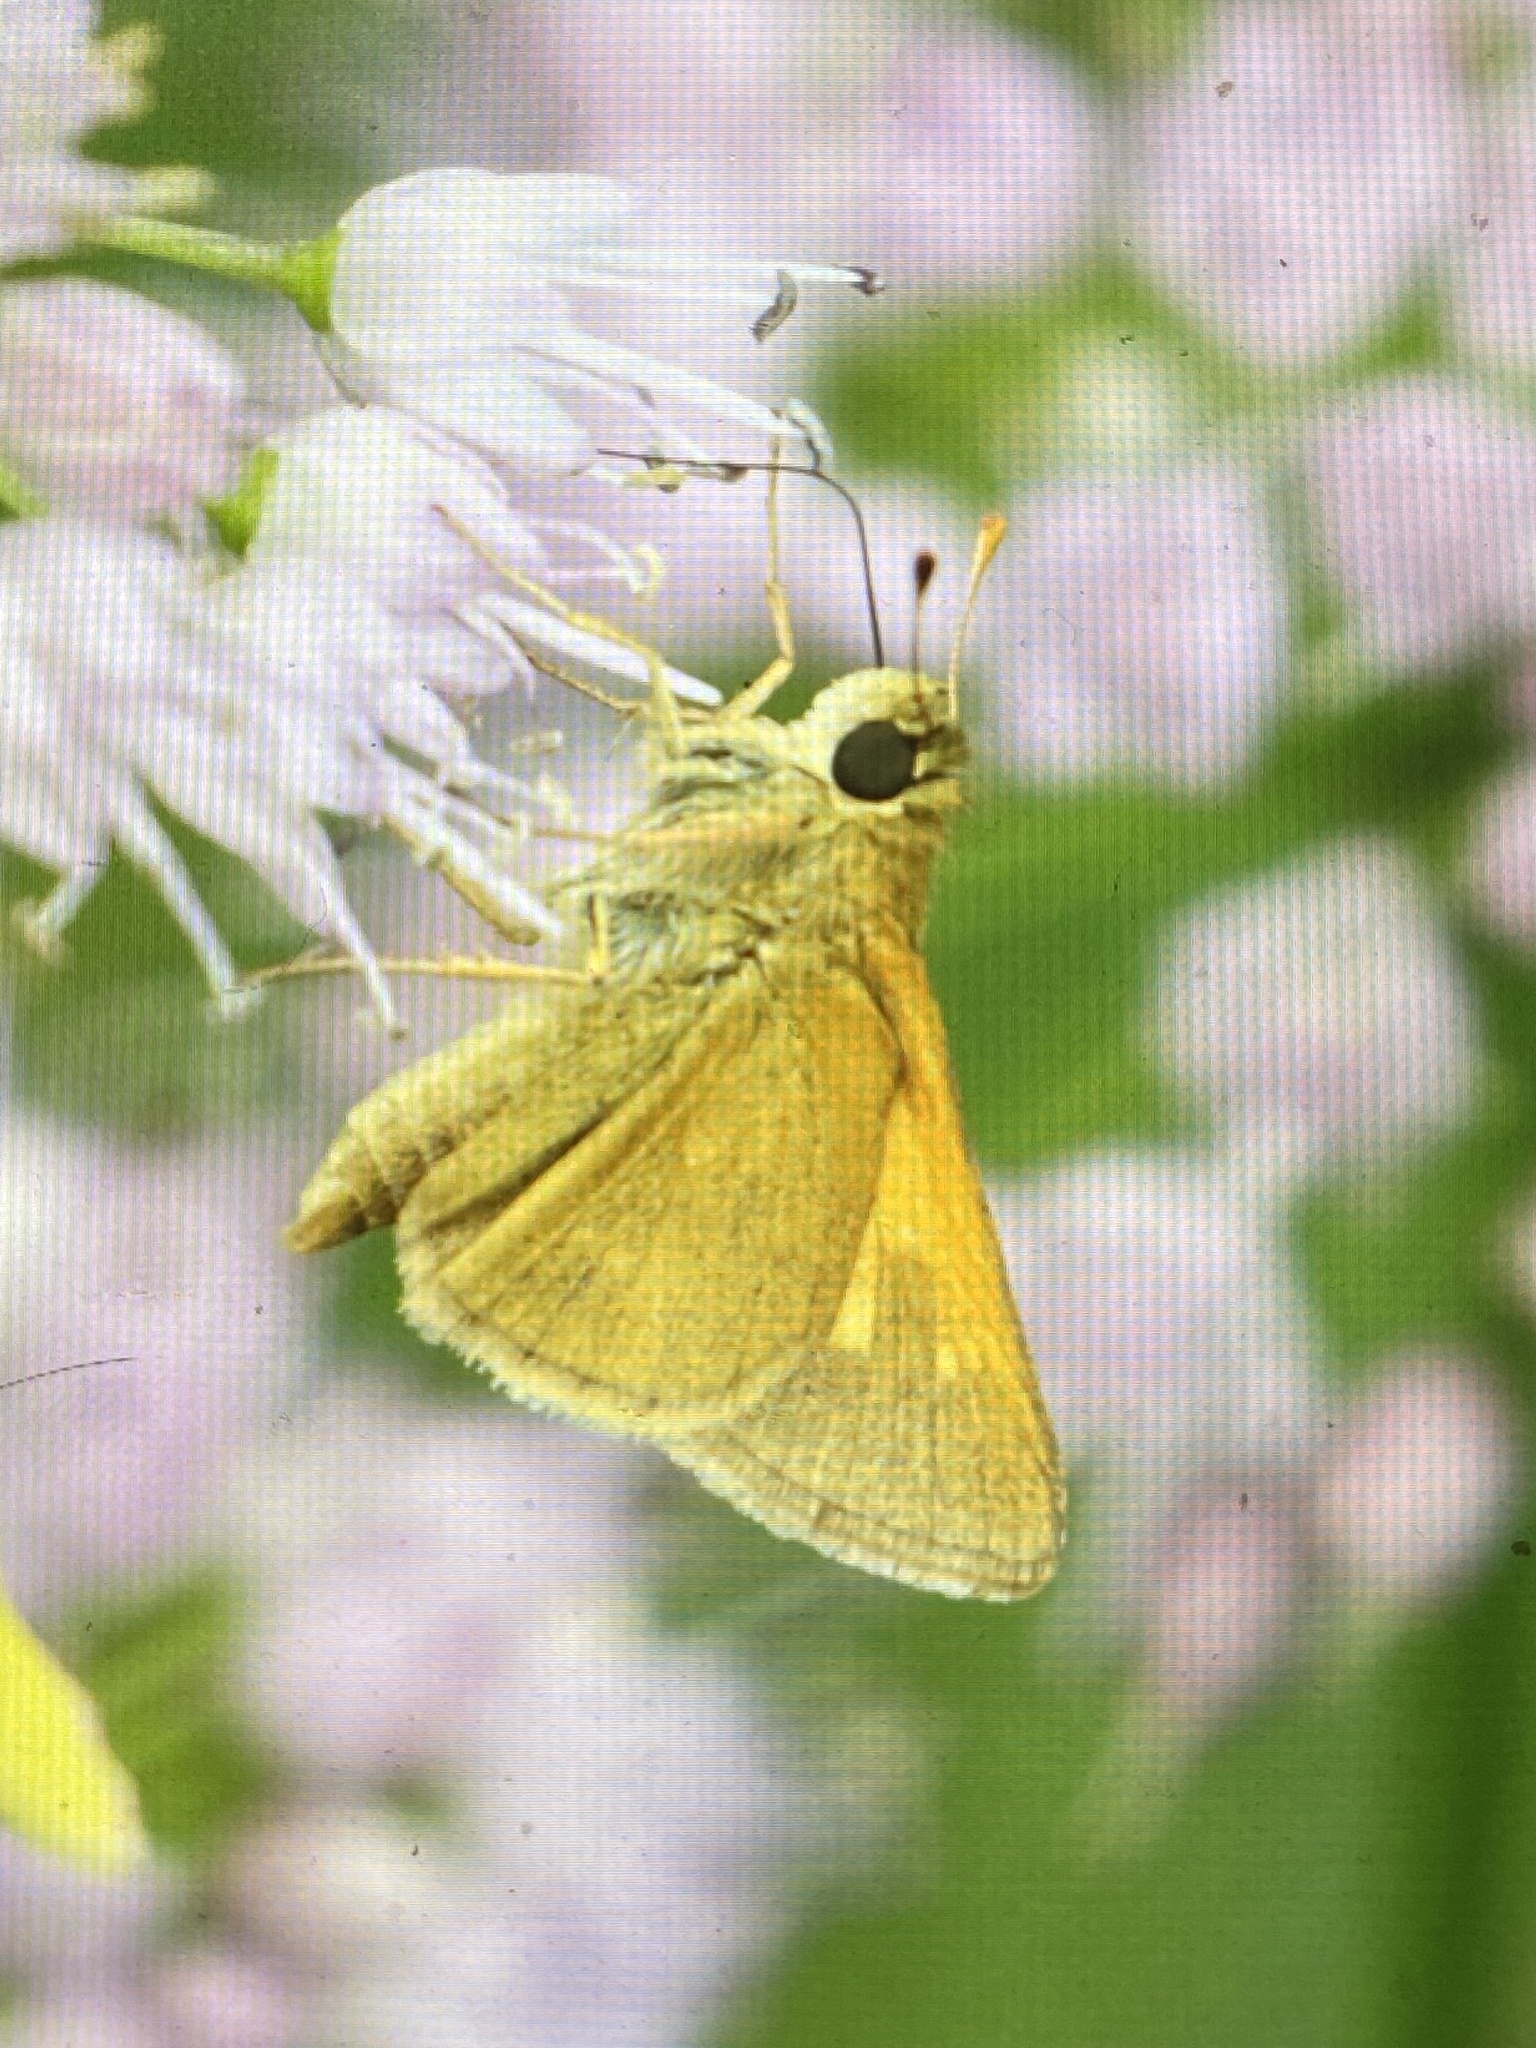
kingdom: Animalia
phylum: Arthropoda
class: Insecta
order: Lepidoptera
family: Hesperiidae
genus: Polites
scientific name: Polites themistocles
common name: Tawny-edged skipper
